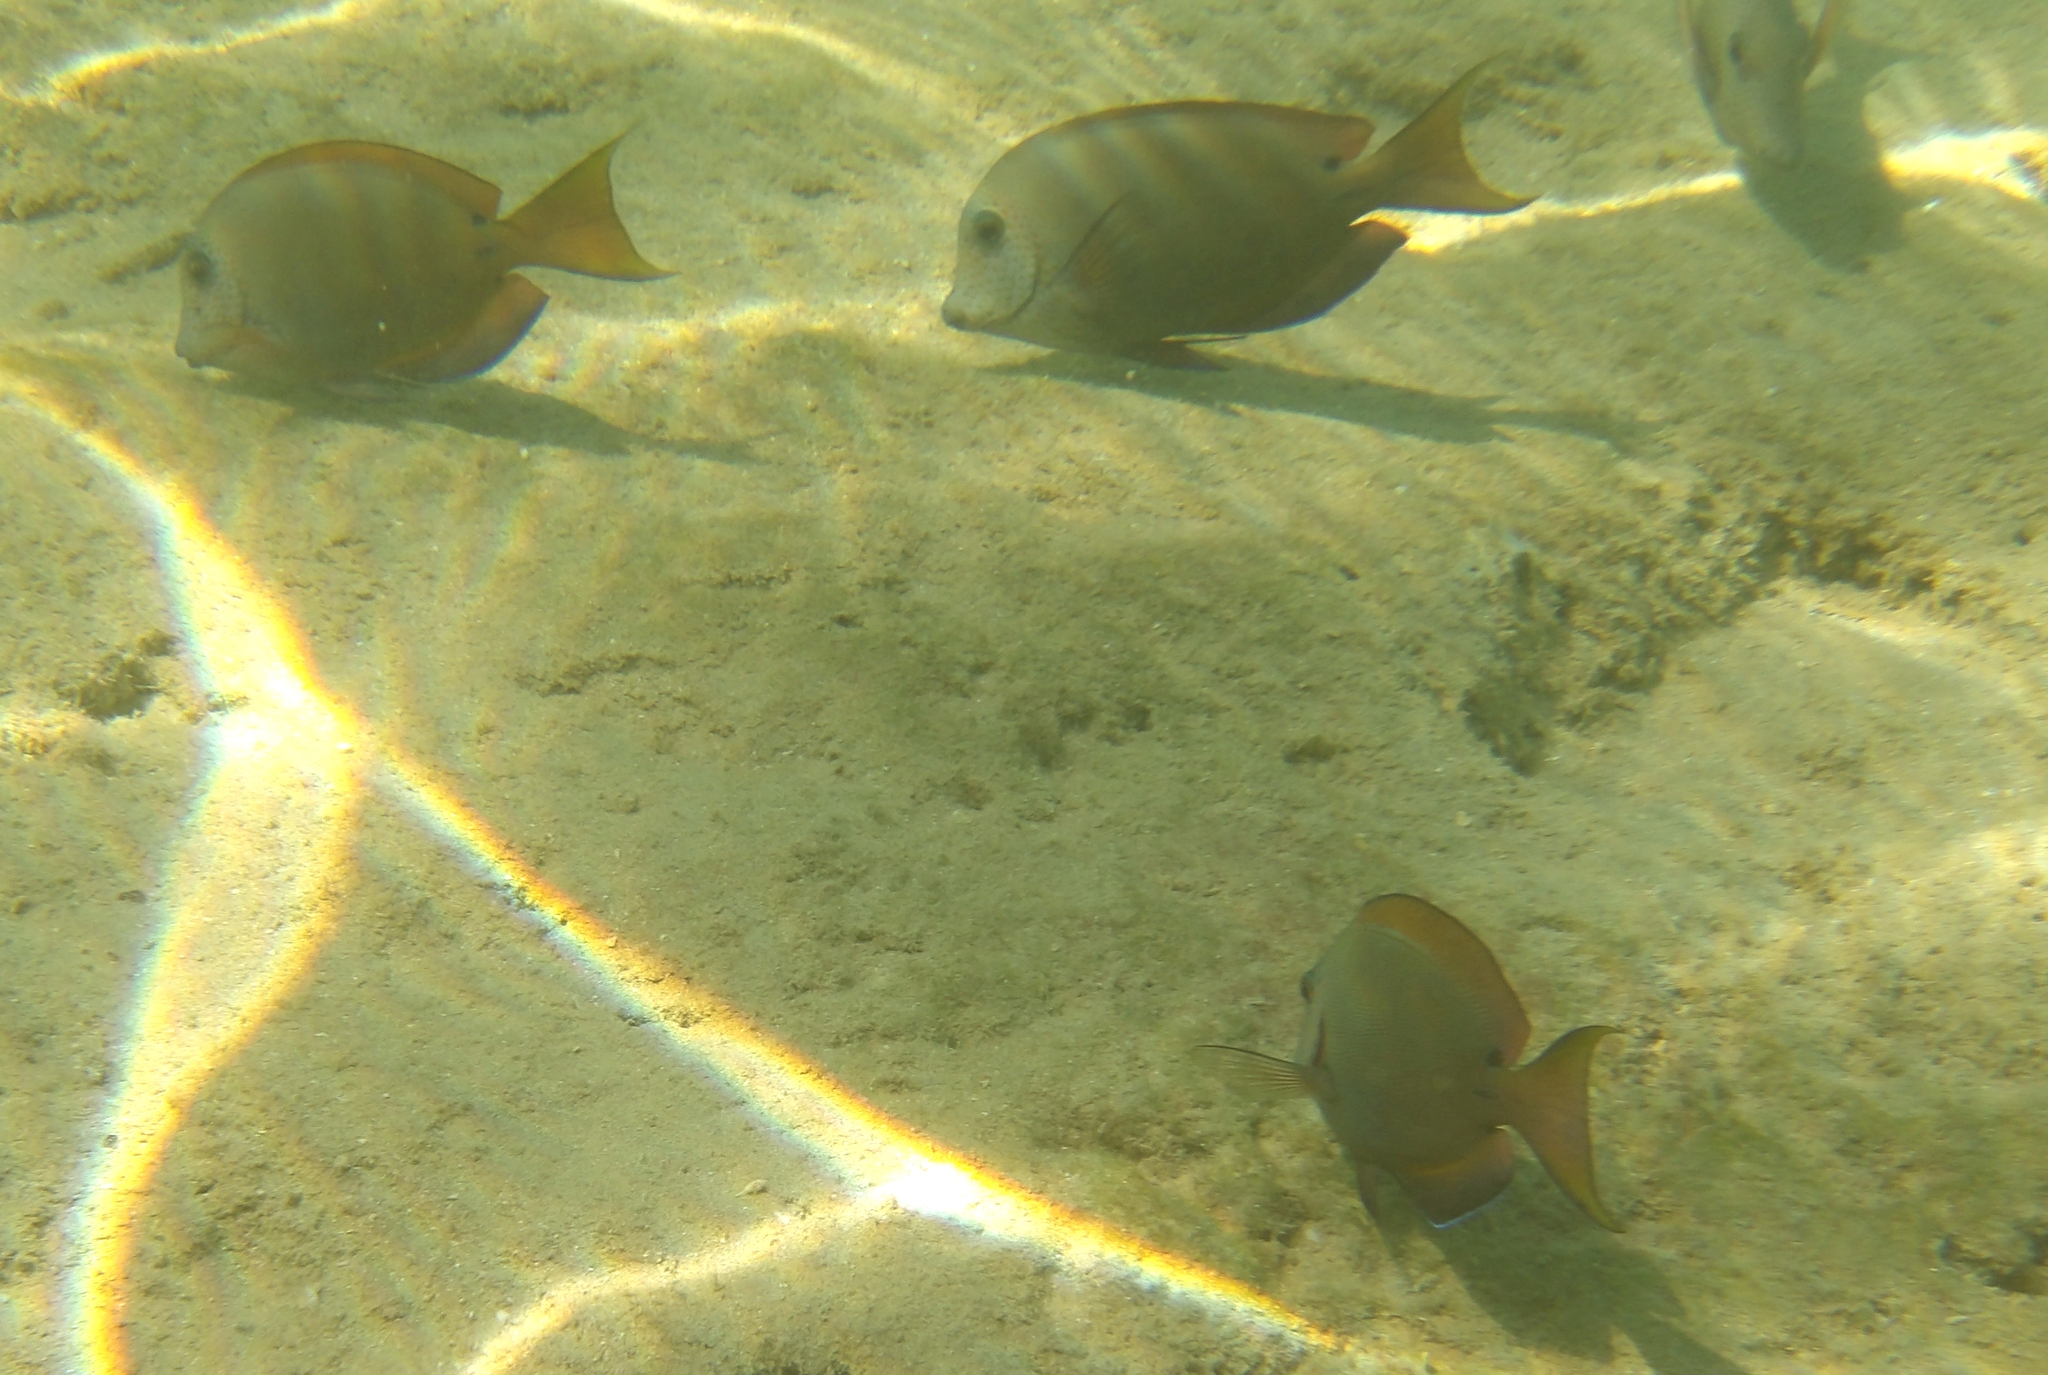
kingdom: Animalia
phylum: Chordata
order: Perciformes
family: Acanthuridae
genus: Acanthurus
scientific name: Acanthurus nigrofuscus
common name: Blackspot surgeonfish
